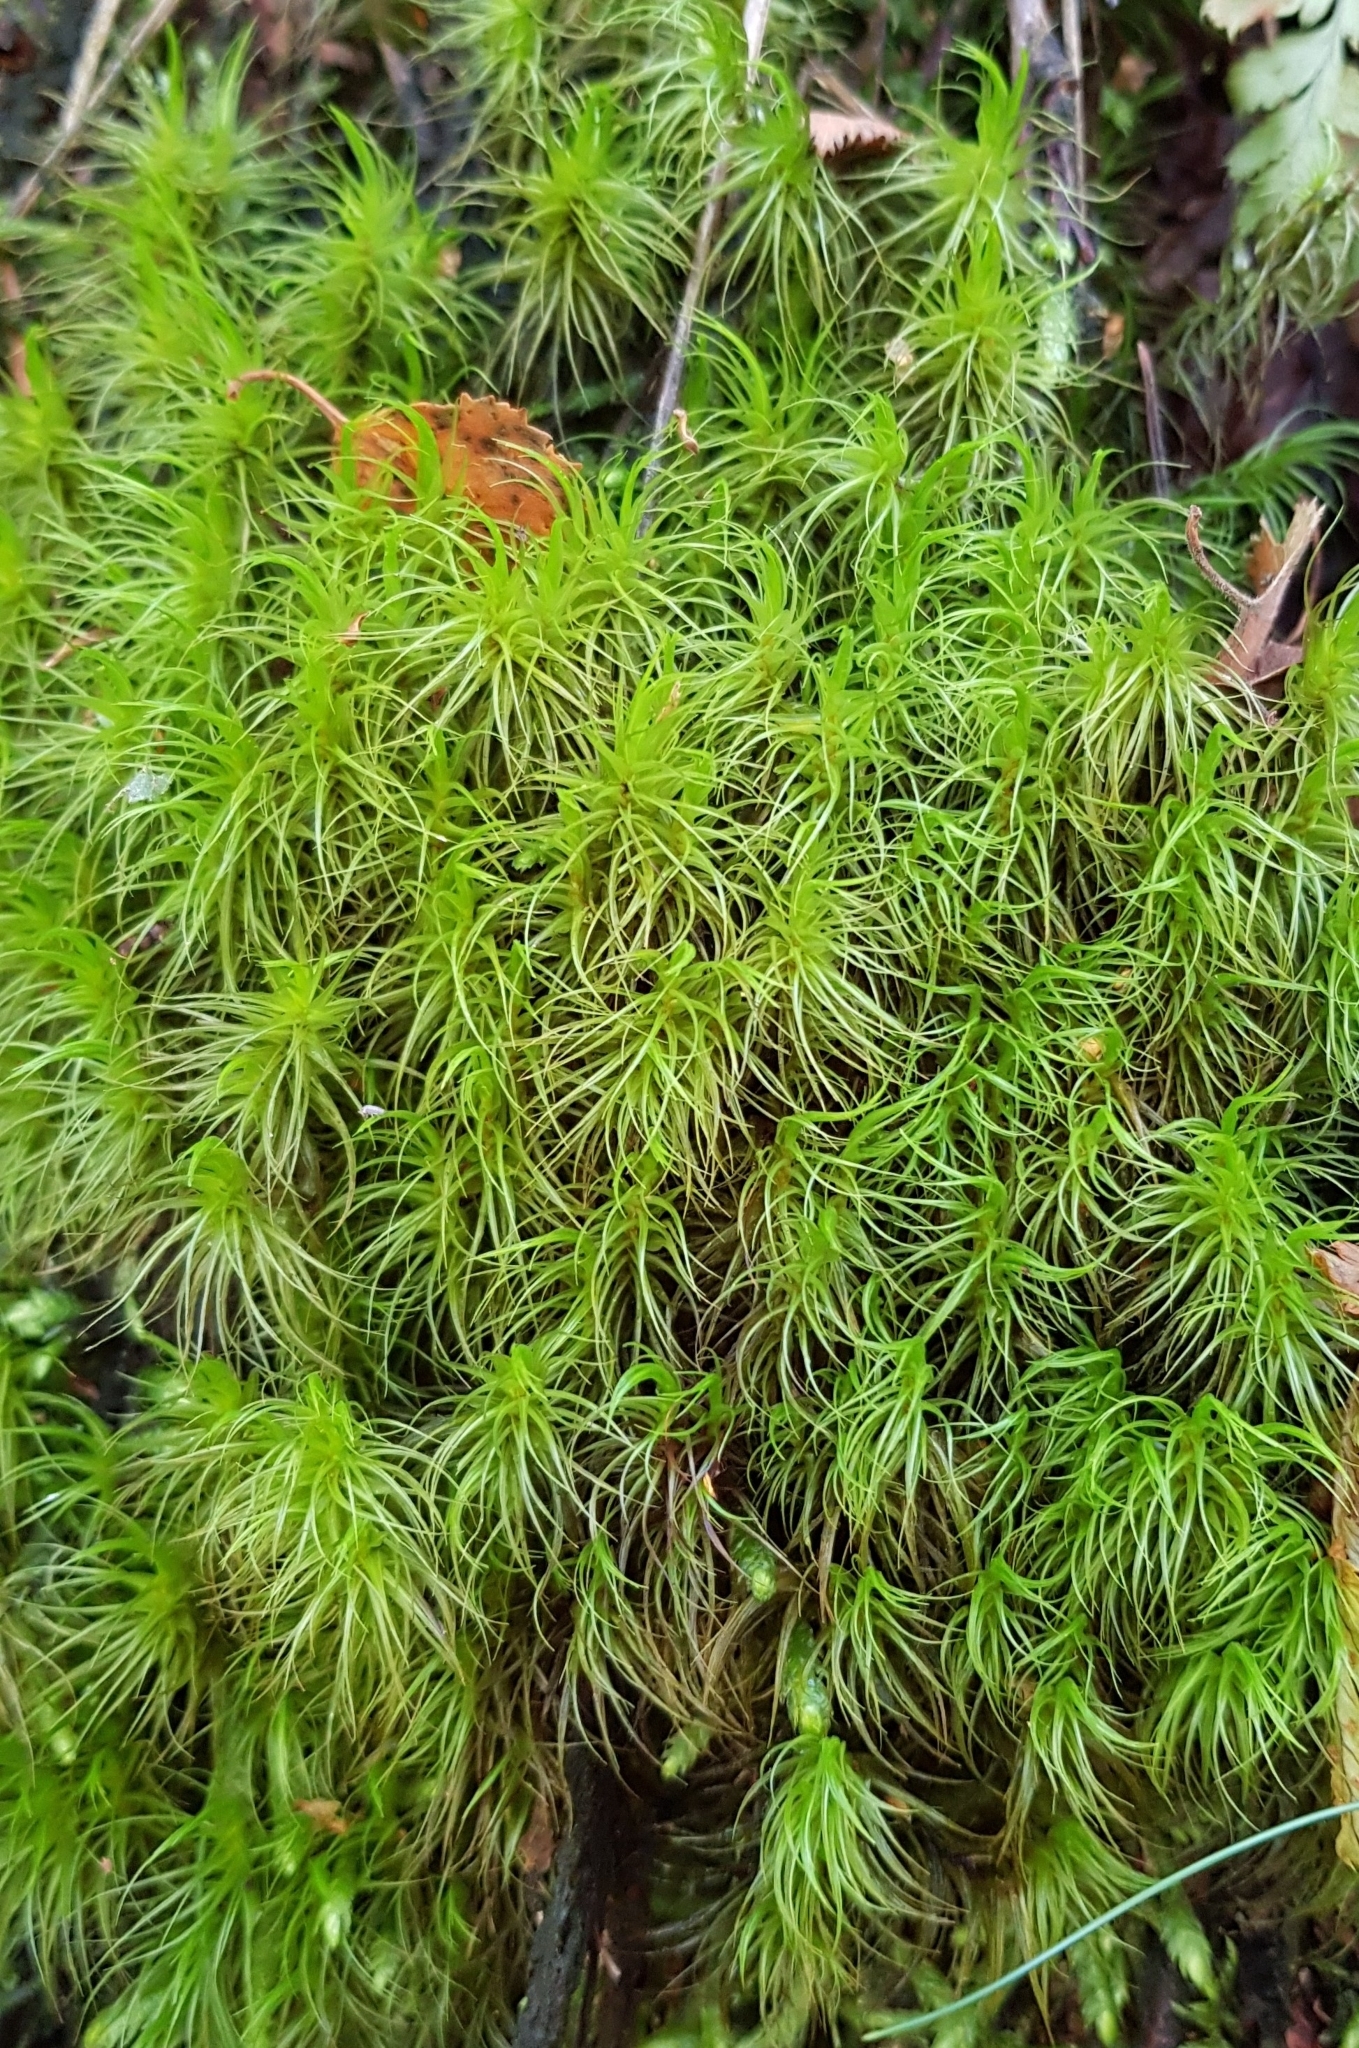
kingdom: Plantae
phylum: Bryophyta
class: Bryopsida
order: Dicranales
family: Dicranaceae
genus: Dicranum
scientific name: Dicranum majus
